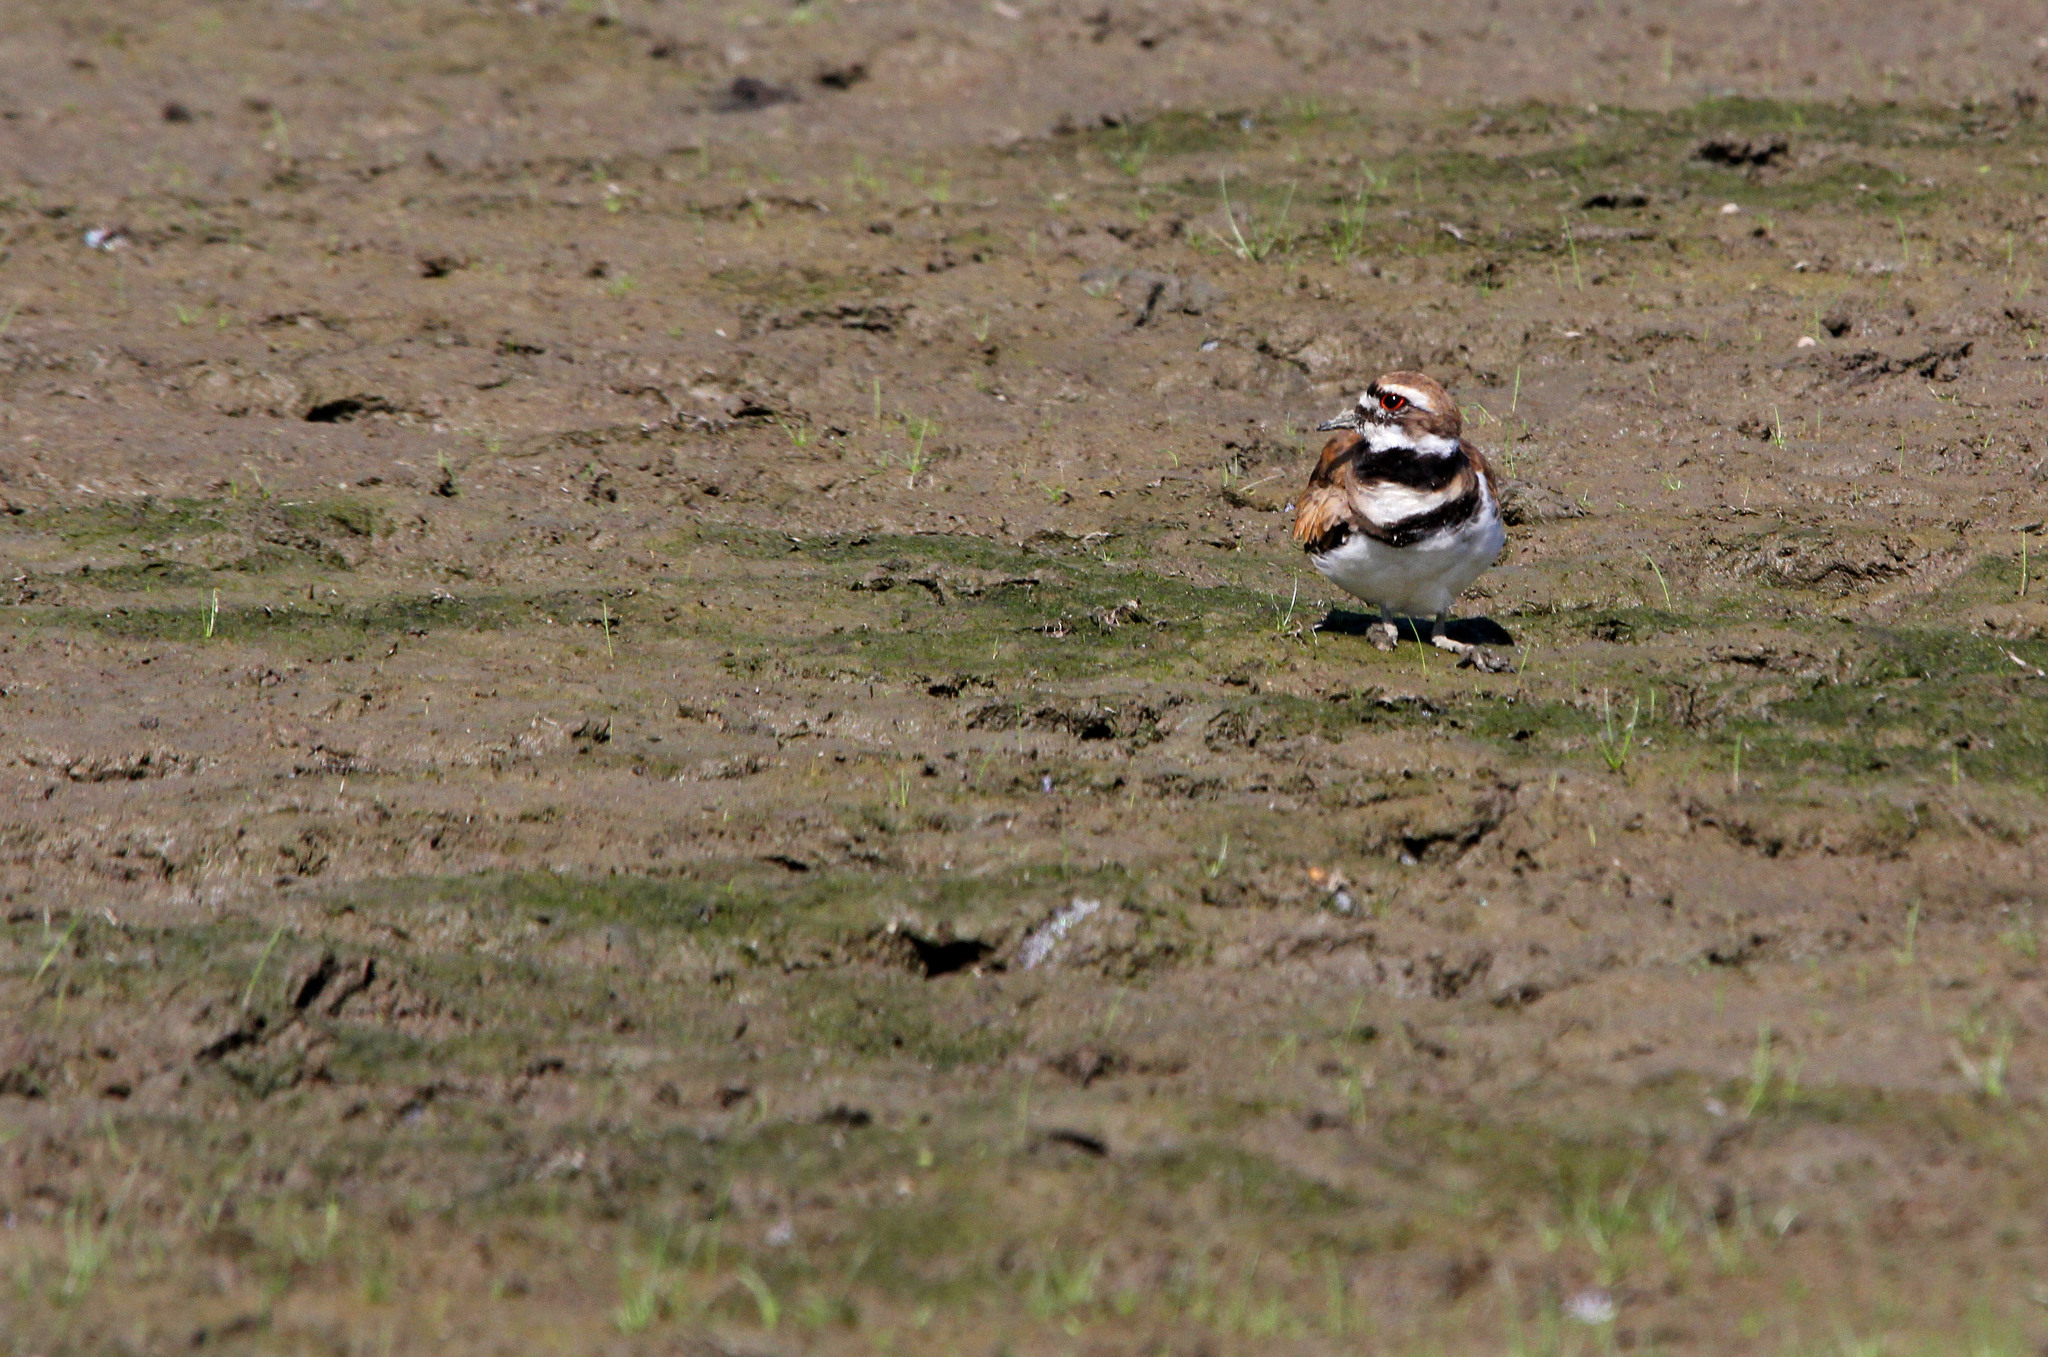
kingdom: Animalia
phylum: Chordata
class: Aves
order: Charadriiformes
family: Charadriidae
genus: Charadrius
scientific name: Charadrius vociferus
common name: Killdeer
